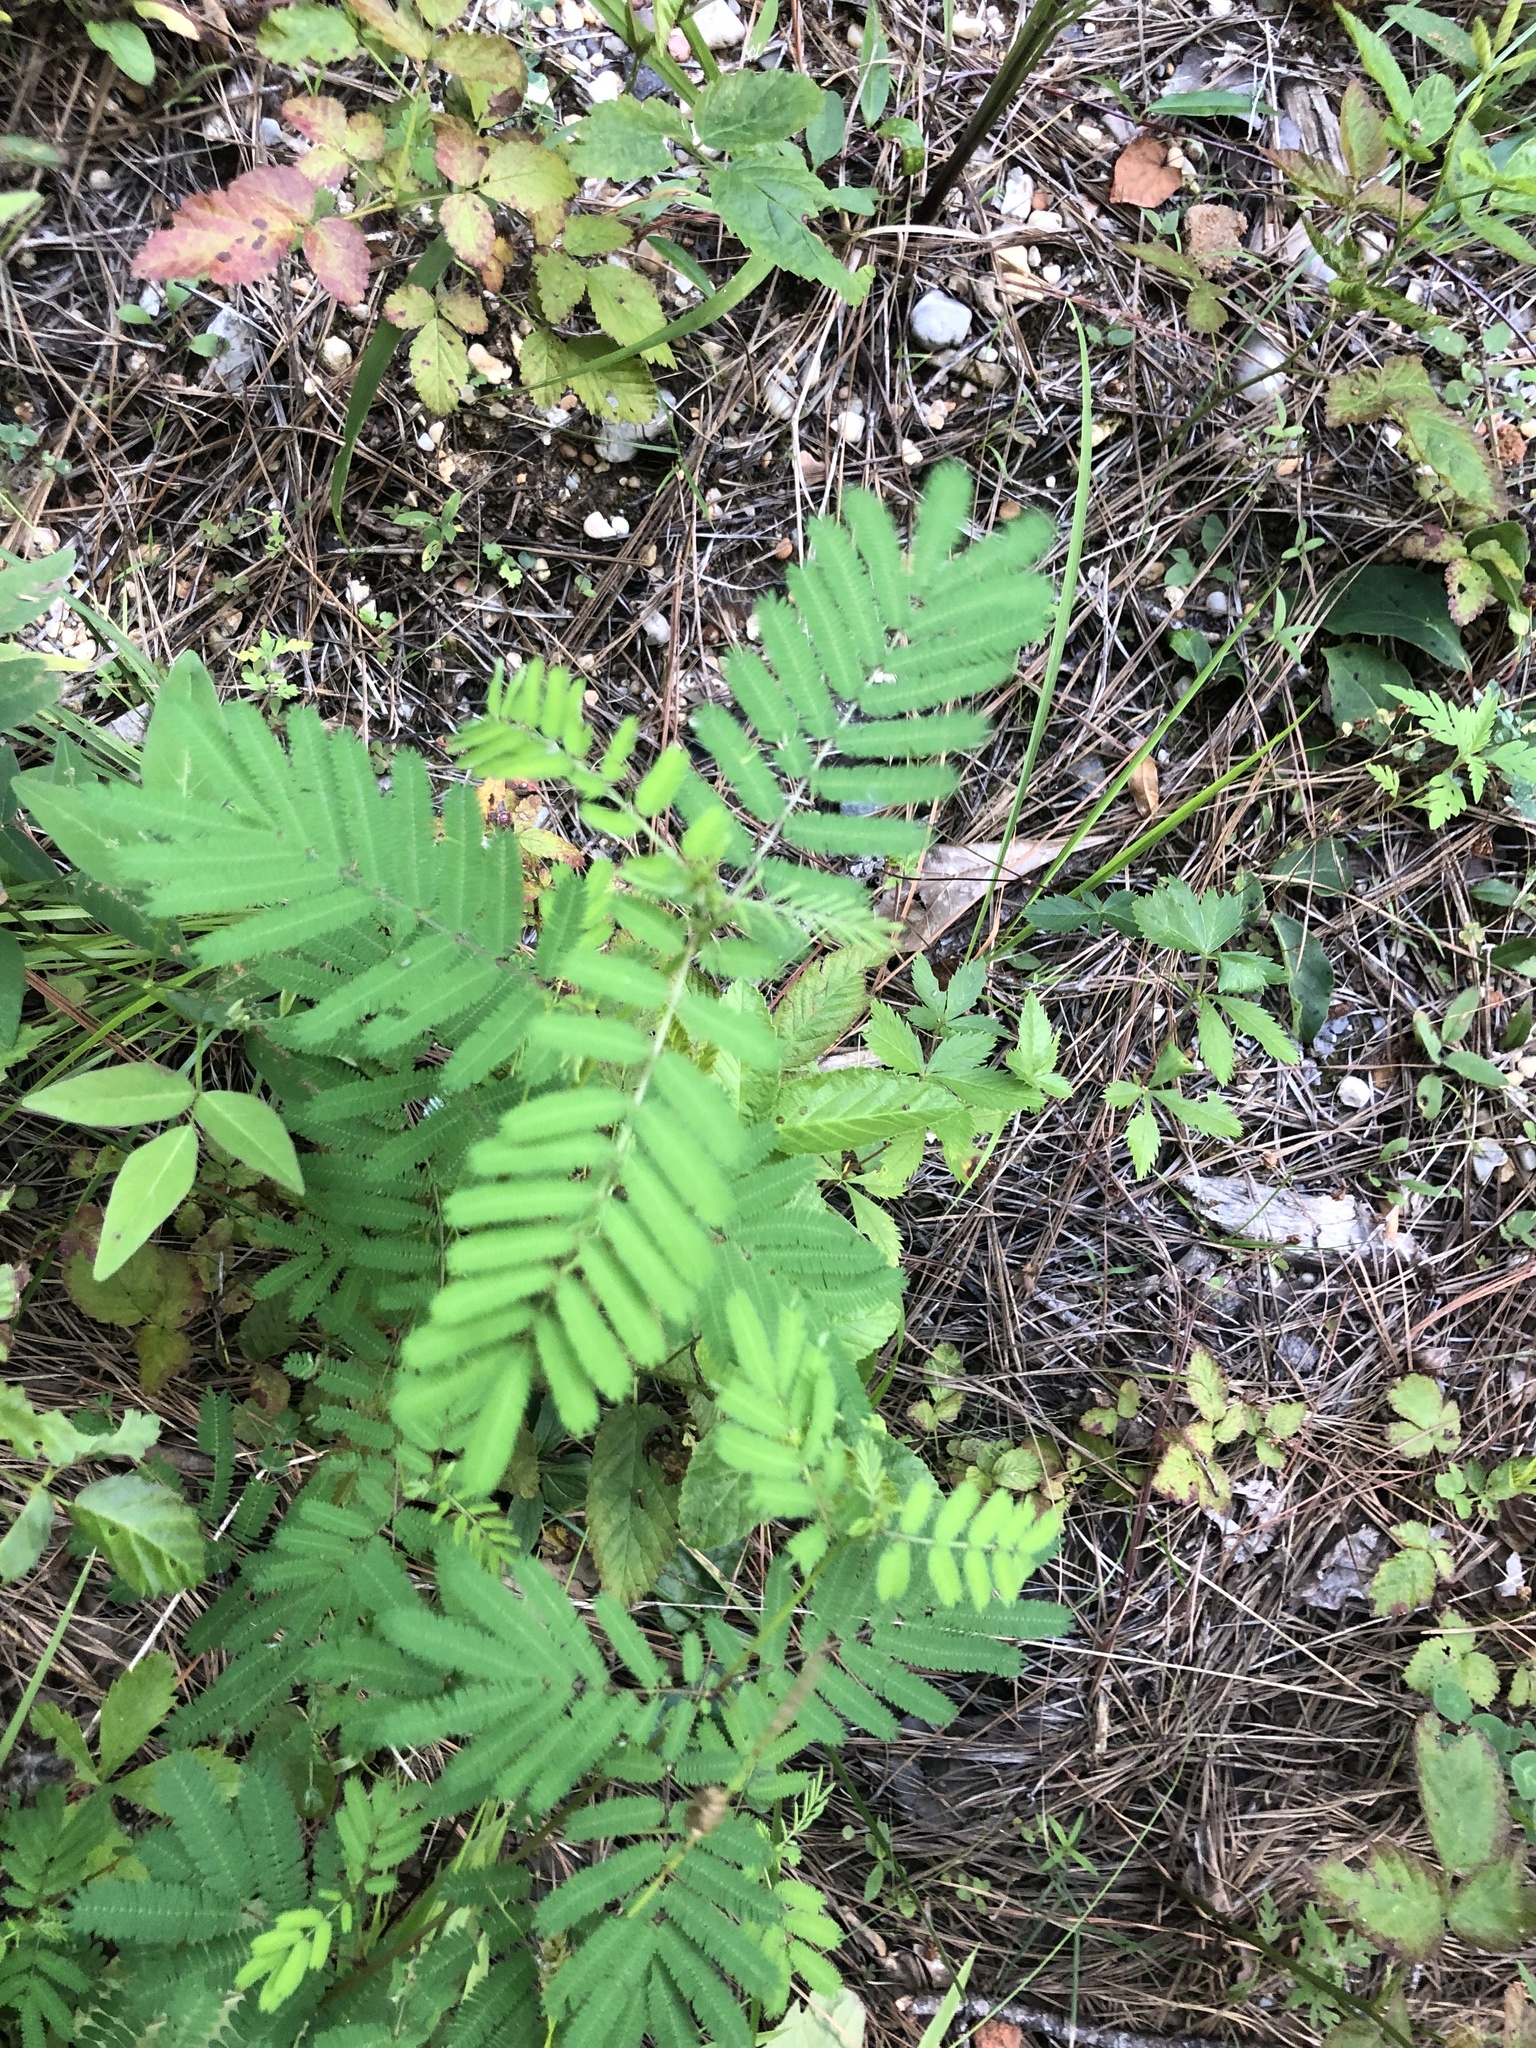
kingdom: Plantae
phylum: Tracheophyta
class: Magnoliopsida
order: Fabales
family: Fabaceae
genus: Desmanthus
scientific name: Desmanthus illinoensis
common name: Illinois bundle-flower
